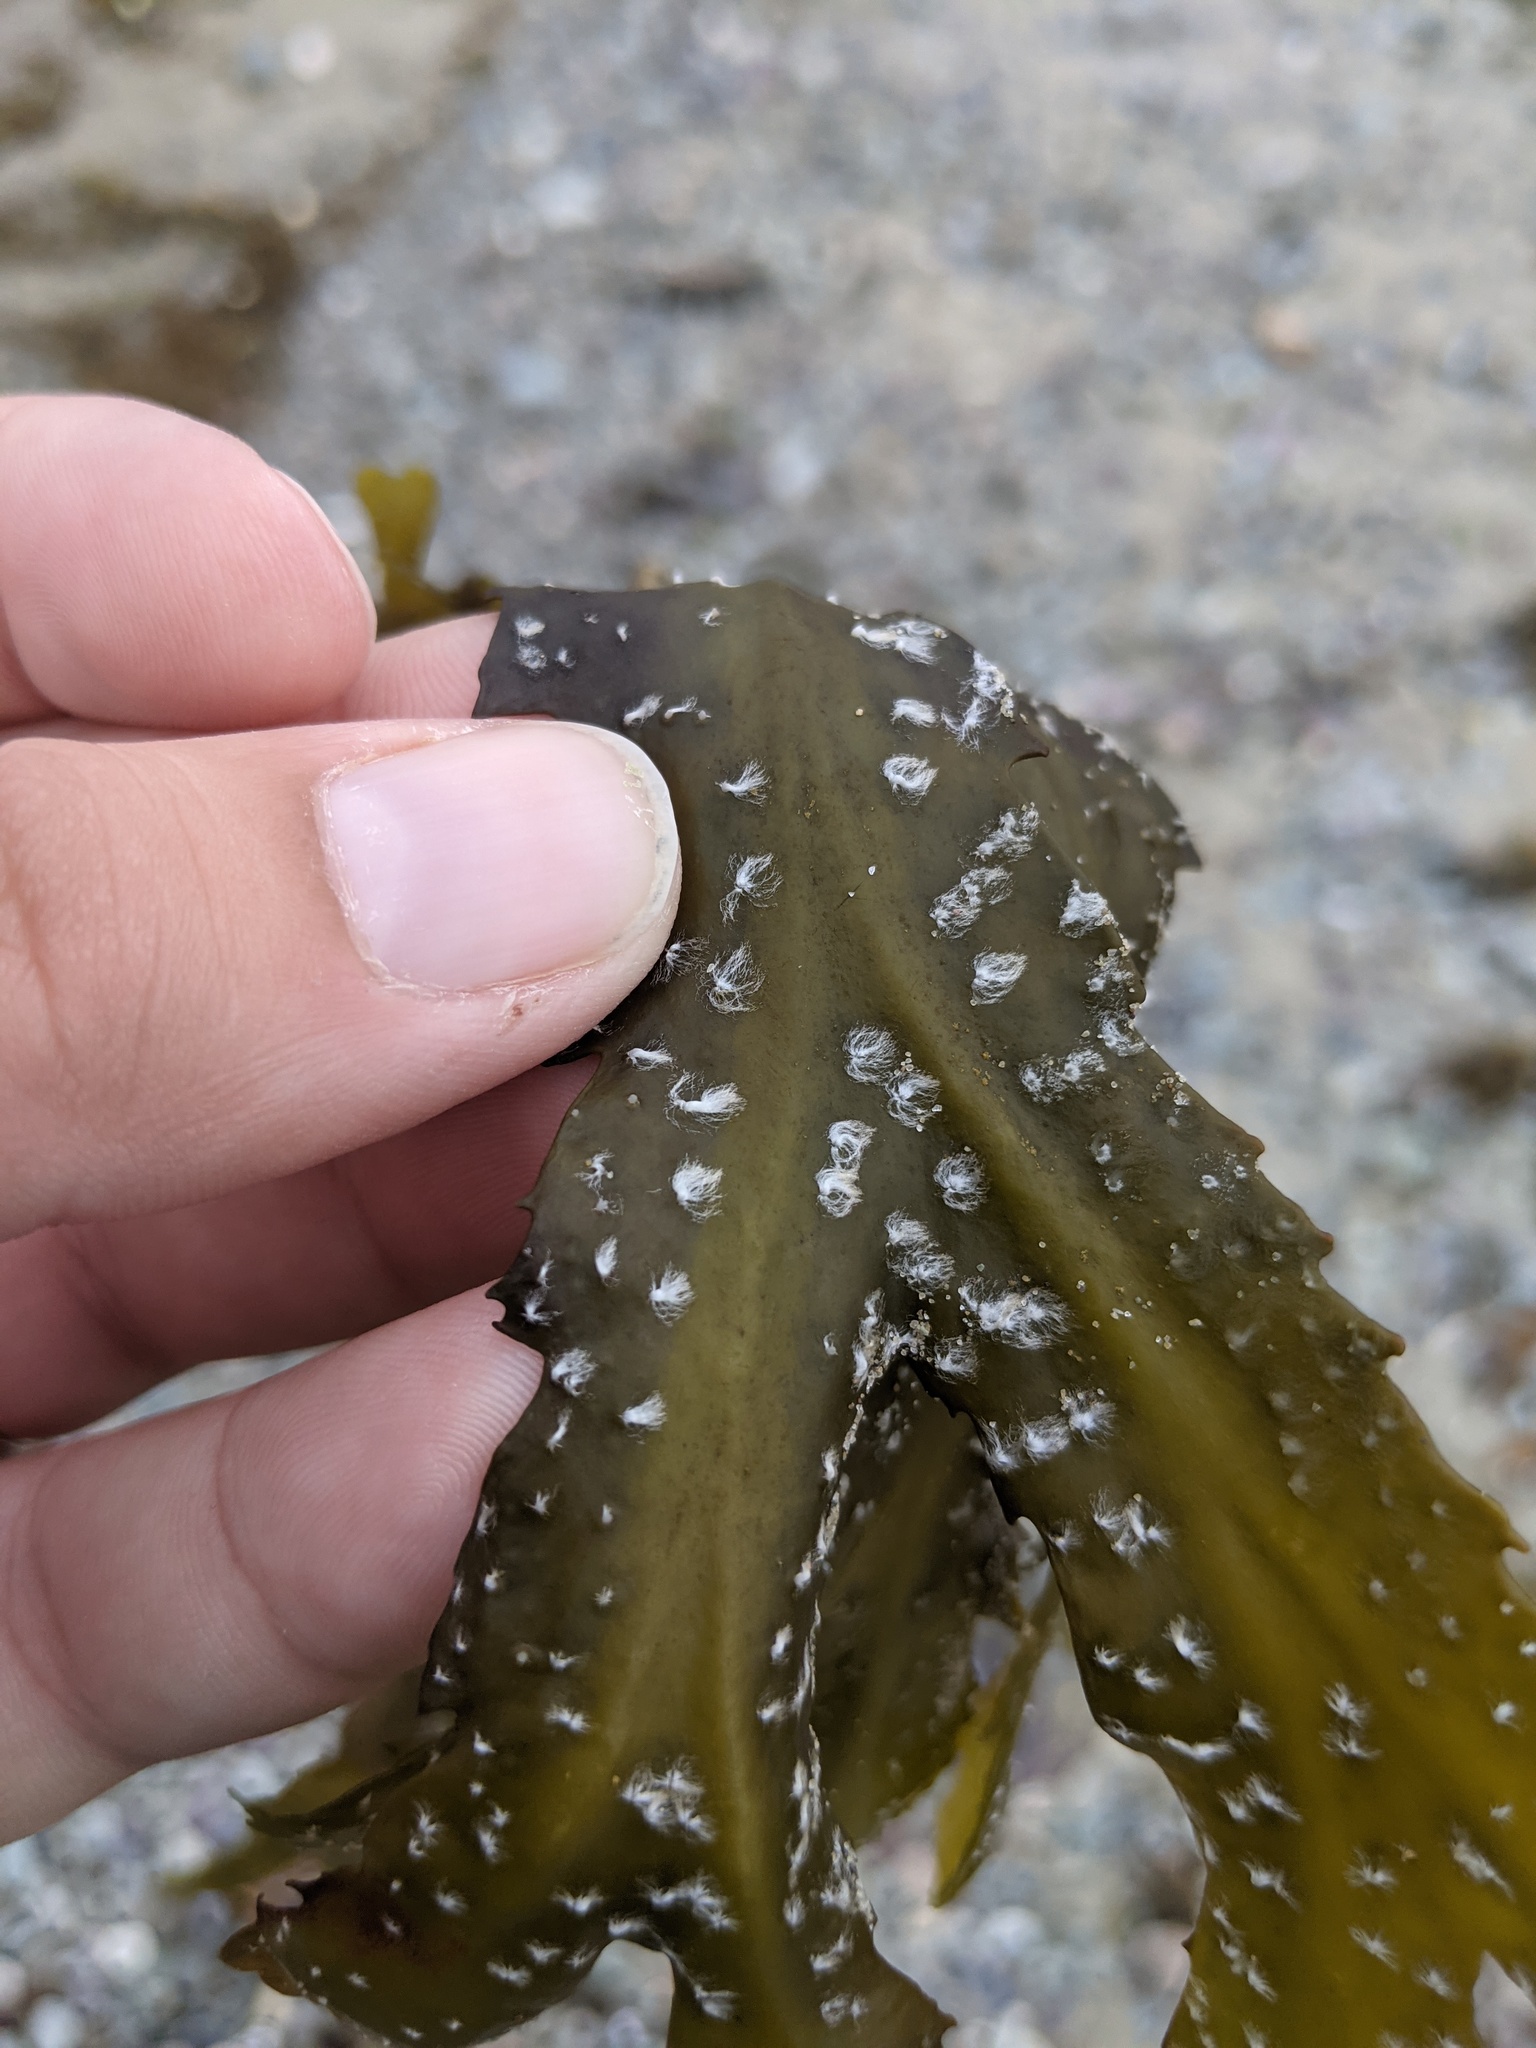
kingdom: Chromista
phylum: Ochrophyta
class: Phaeophyceae
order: Fucales
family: Fucaceae
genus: Fucus
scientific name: Fucus serratus
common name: Toothed wrack
